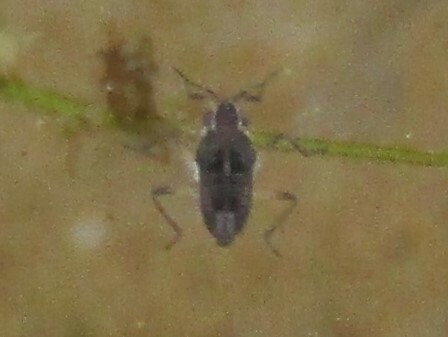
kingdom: Animalia
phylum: Arthropoda
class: Insecta
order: Hemiptera
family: Veliidae
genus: Microvelia
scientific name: Microvelia
